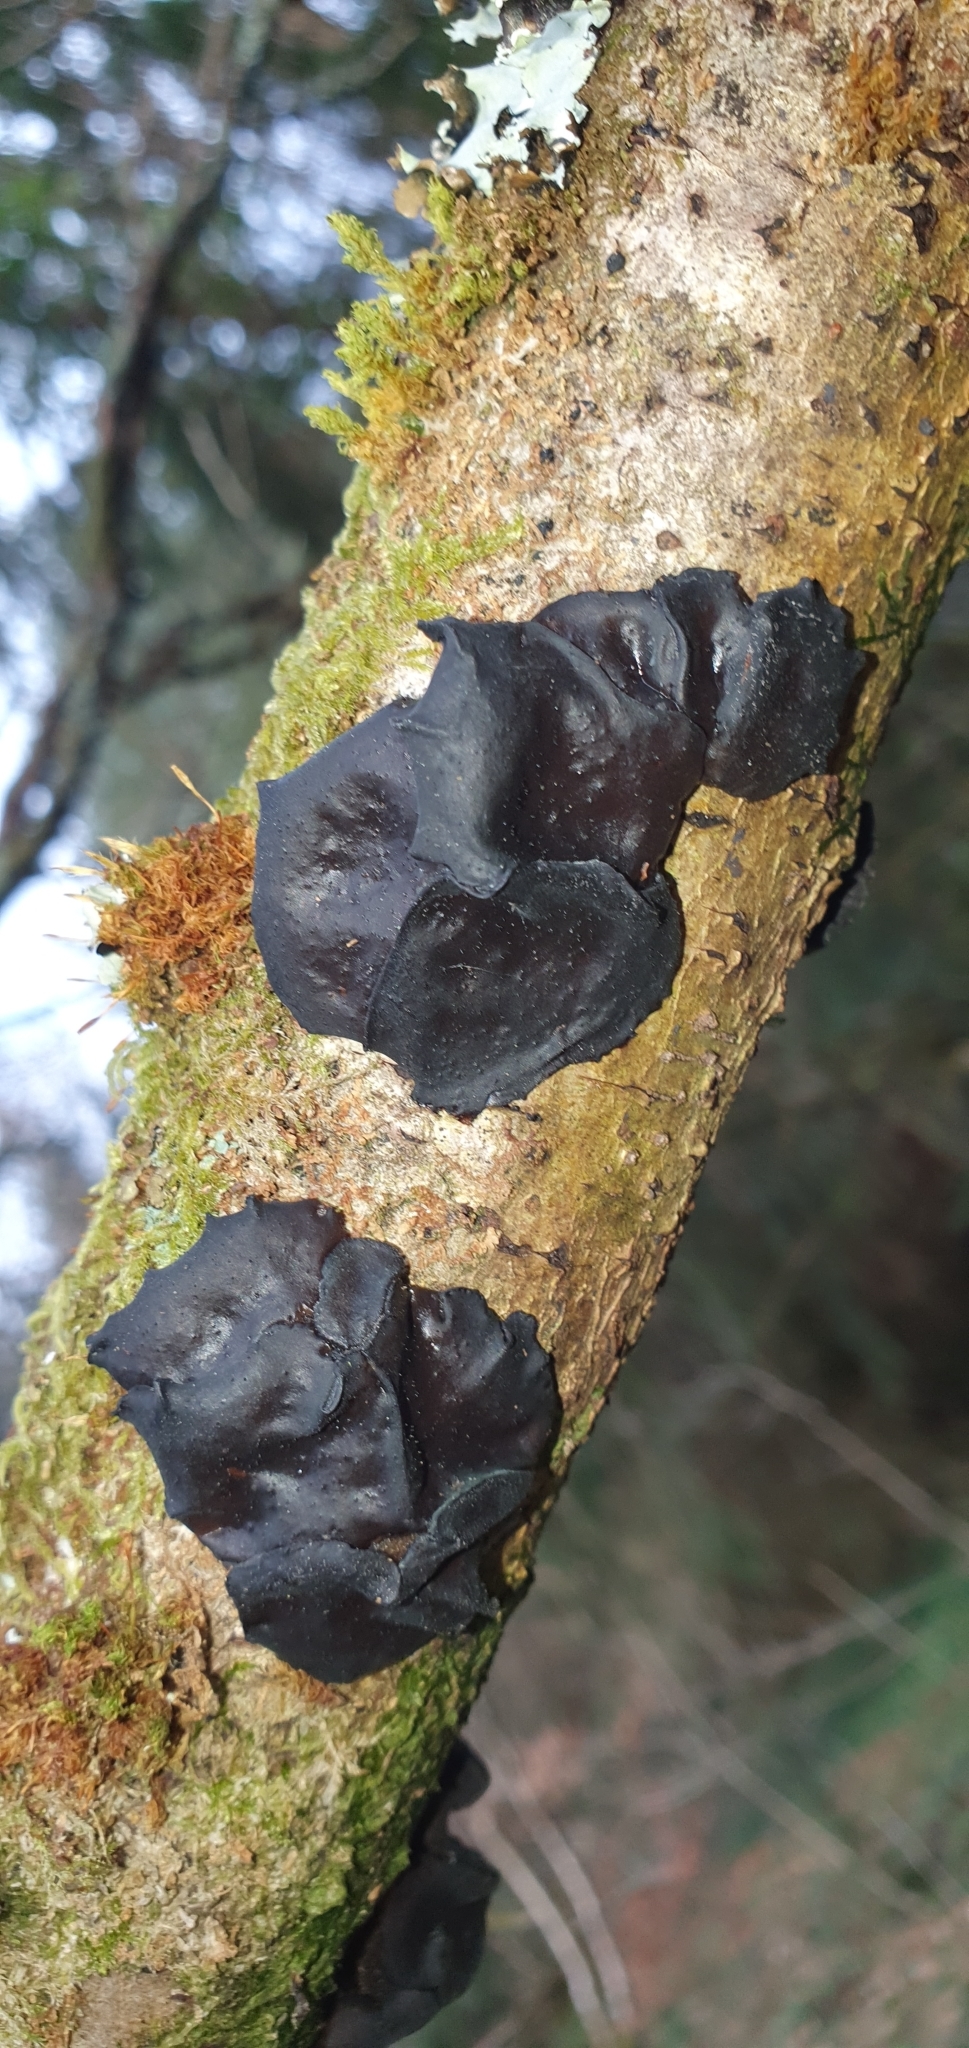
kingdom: Fungi
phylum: Basidiomycota
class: Agaricomycetes
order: Auriculariales
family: Auriculariaceae
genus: Exidia
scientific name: Exidia glandulosa
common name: Witches' butter
